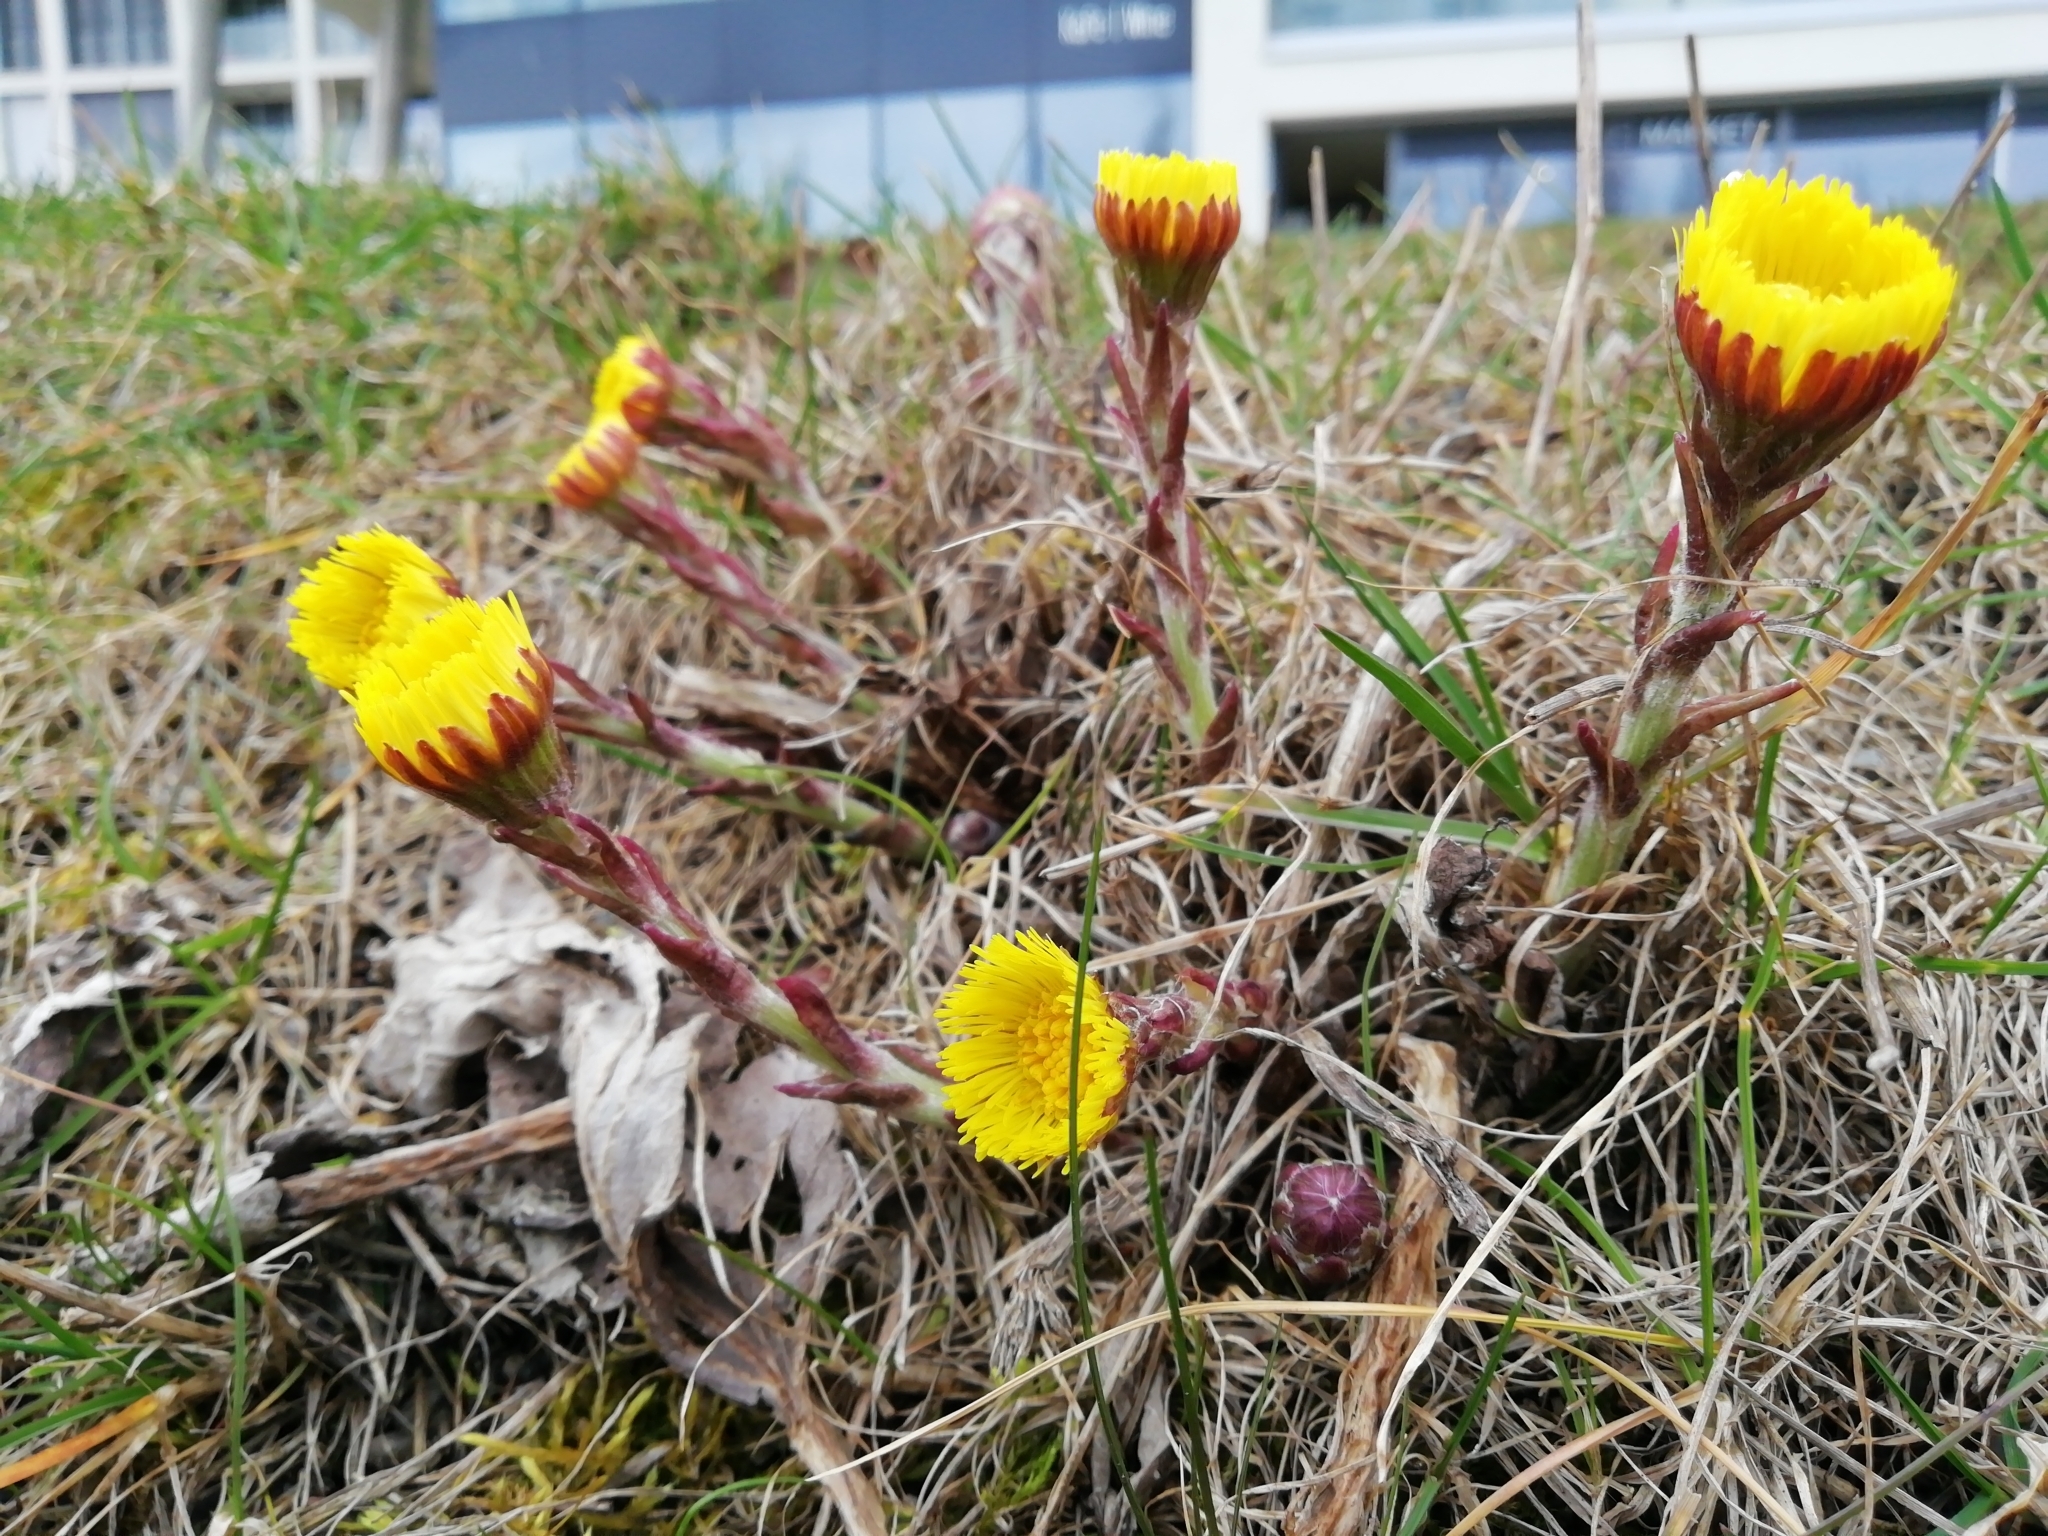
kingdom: Plantae
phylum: Tracheophyta
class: Magnoliopsida
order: Asterales
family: Asteraceae
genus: Tussilago
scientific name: Tussilago farfara
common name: Coltsfoot
